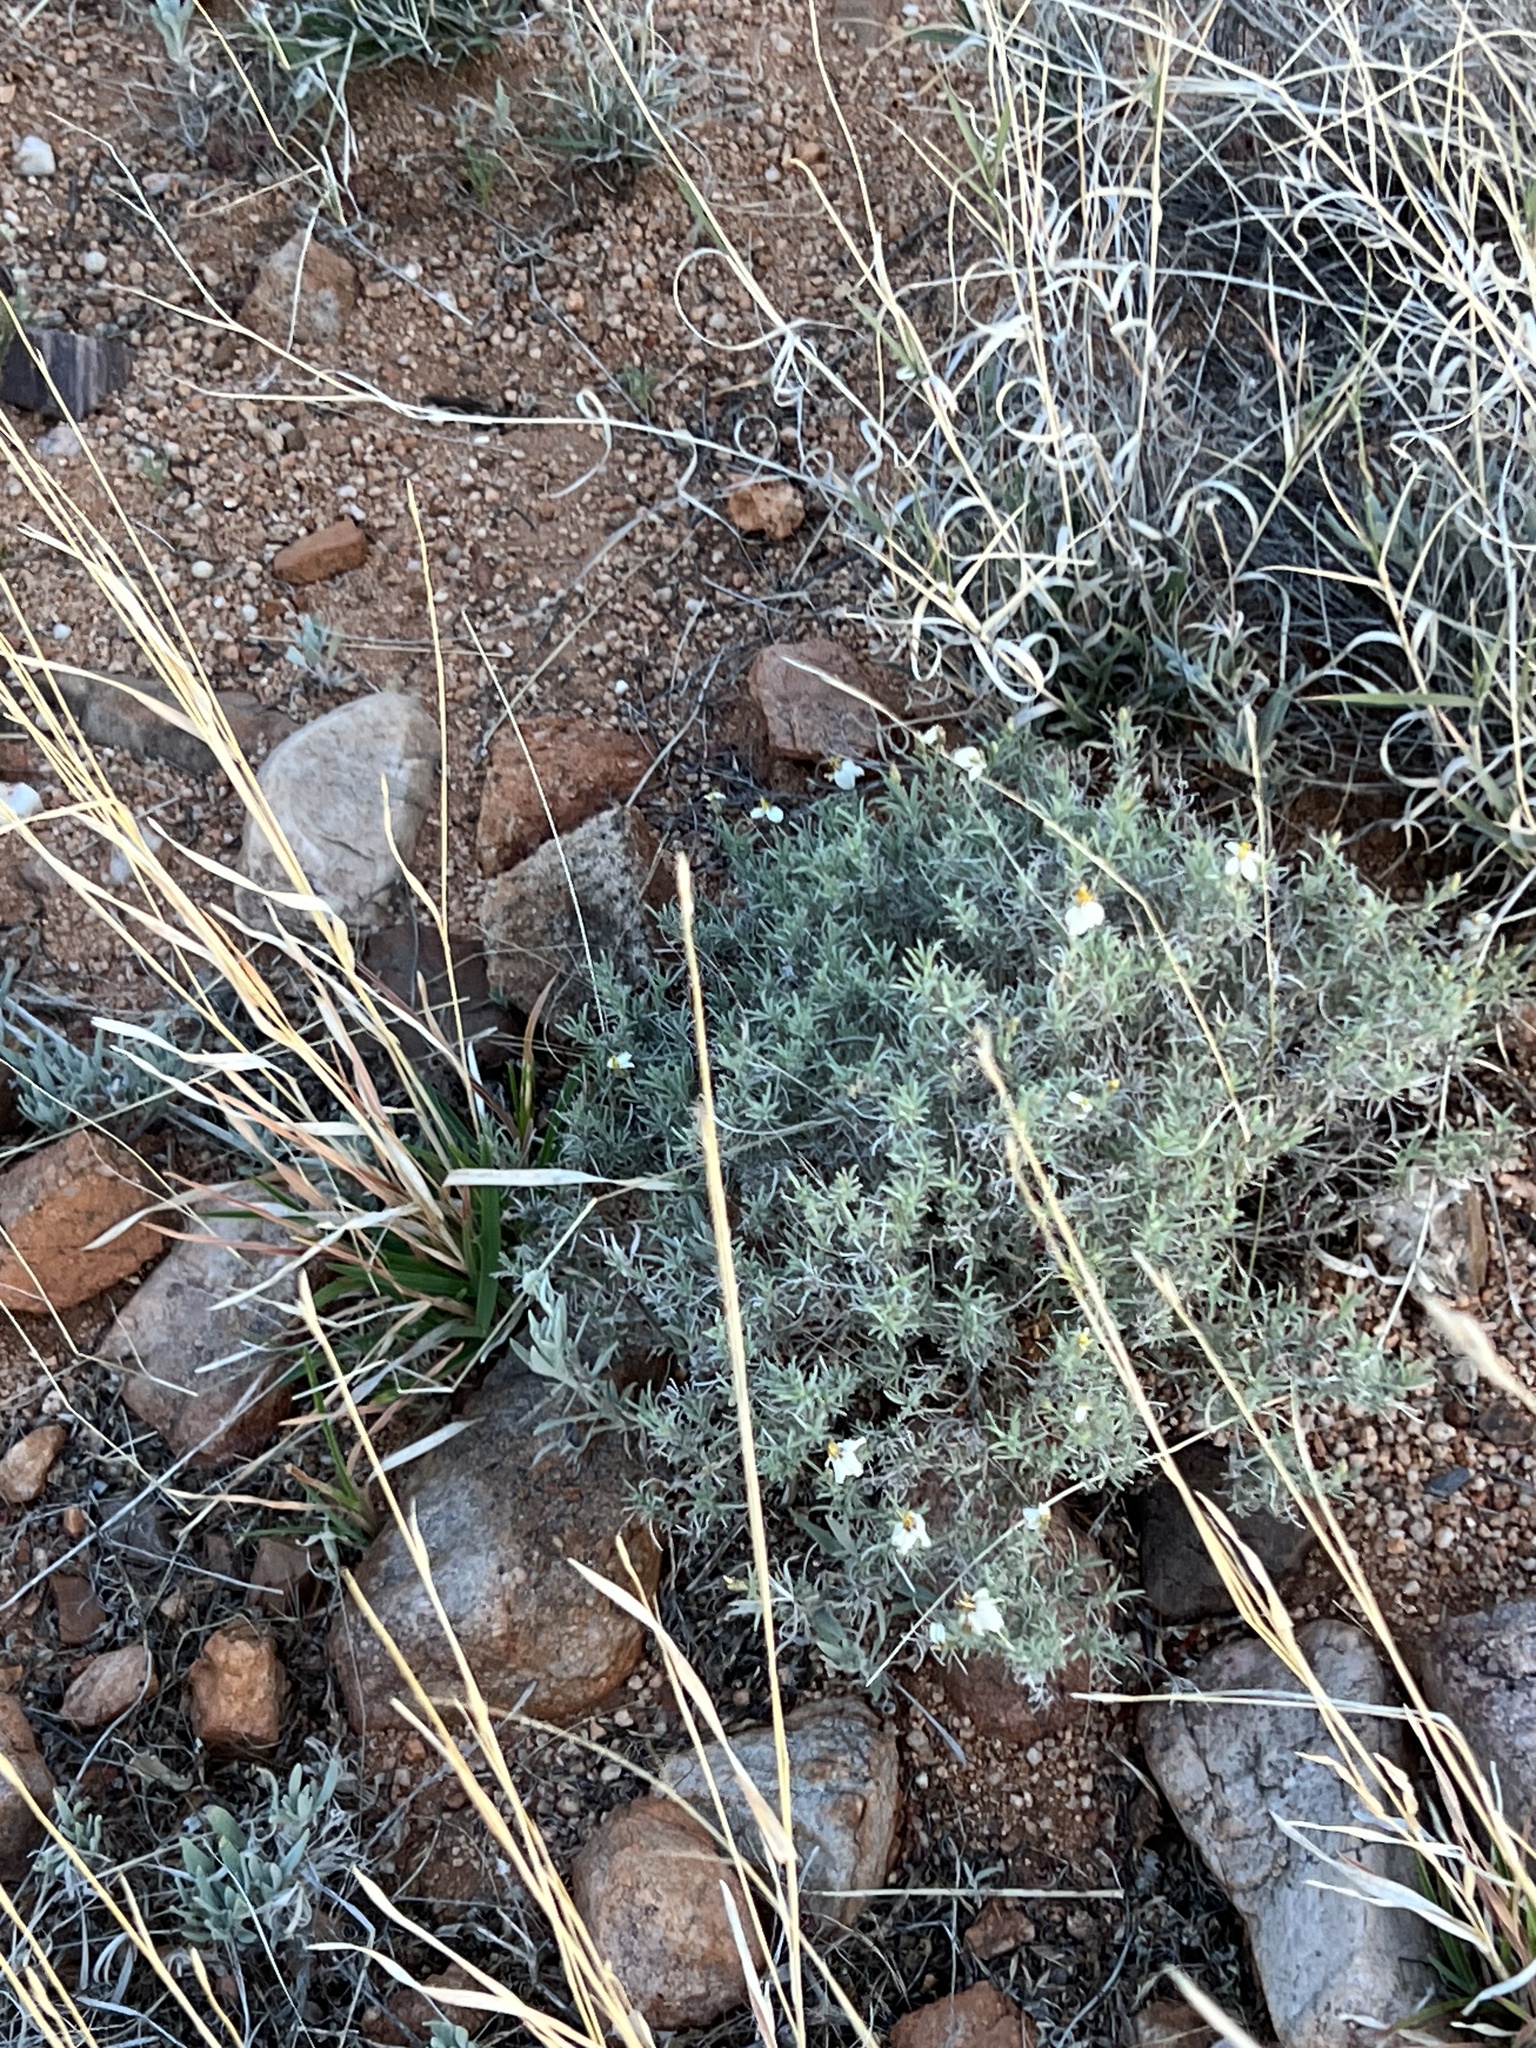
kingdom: Plantae
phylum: Tracheophyta
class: Magnoliopsida
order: Asterales
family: Asteraceae
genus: Zinnia
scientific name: Zinnia acerosa
